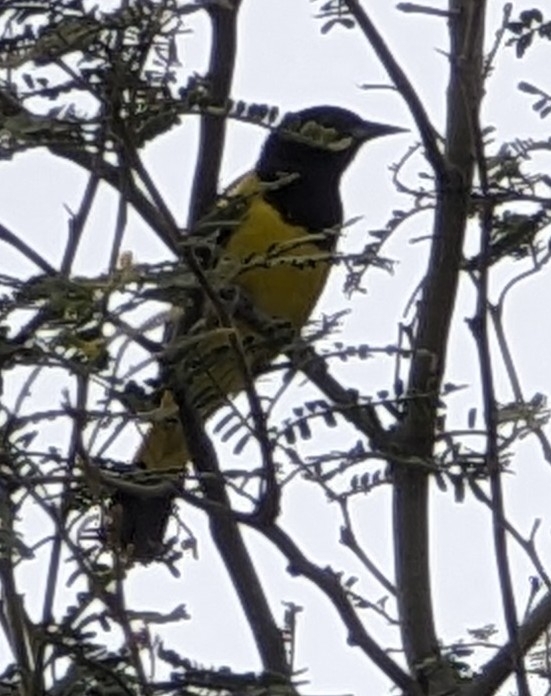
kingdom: Animalia
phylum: Chordata
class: Aves
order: Passeriformes
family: Icteridae
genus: Icterus
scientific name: Icterus parisorum
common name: Scott's oriole
